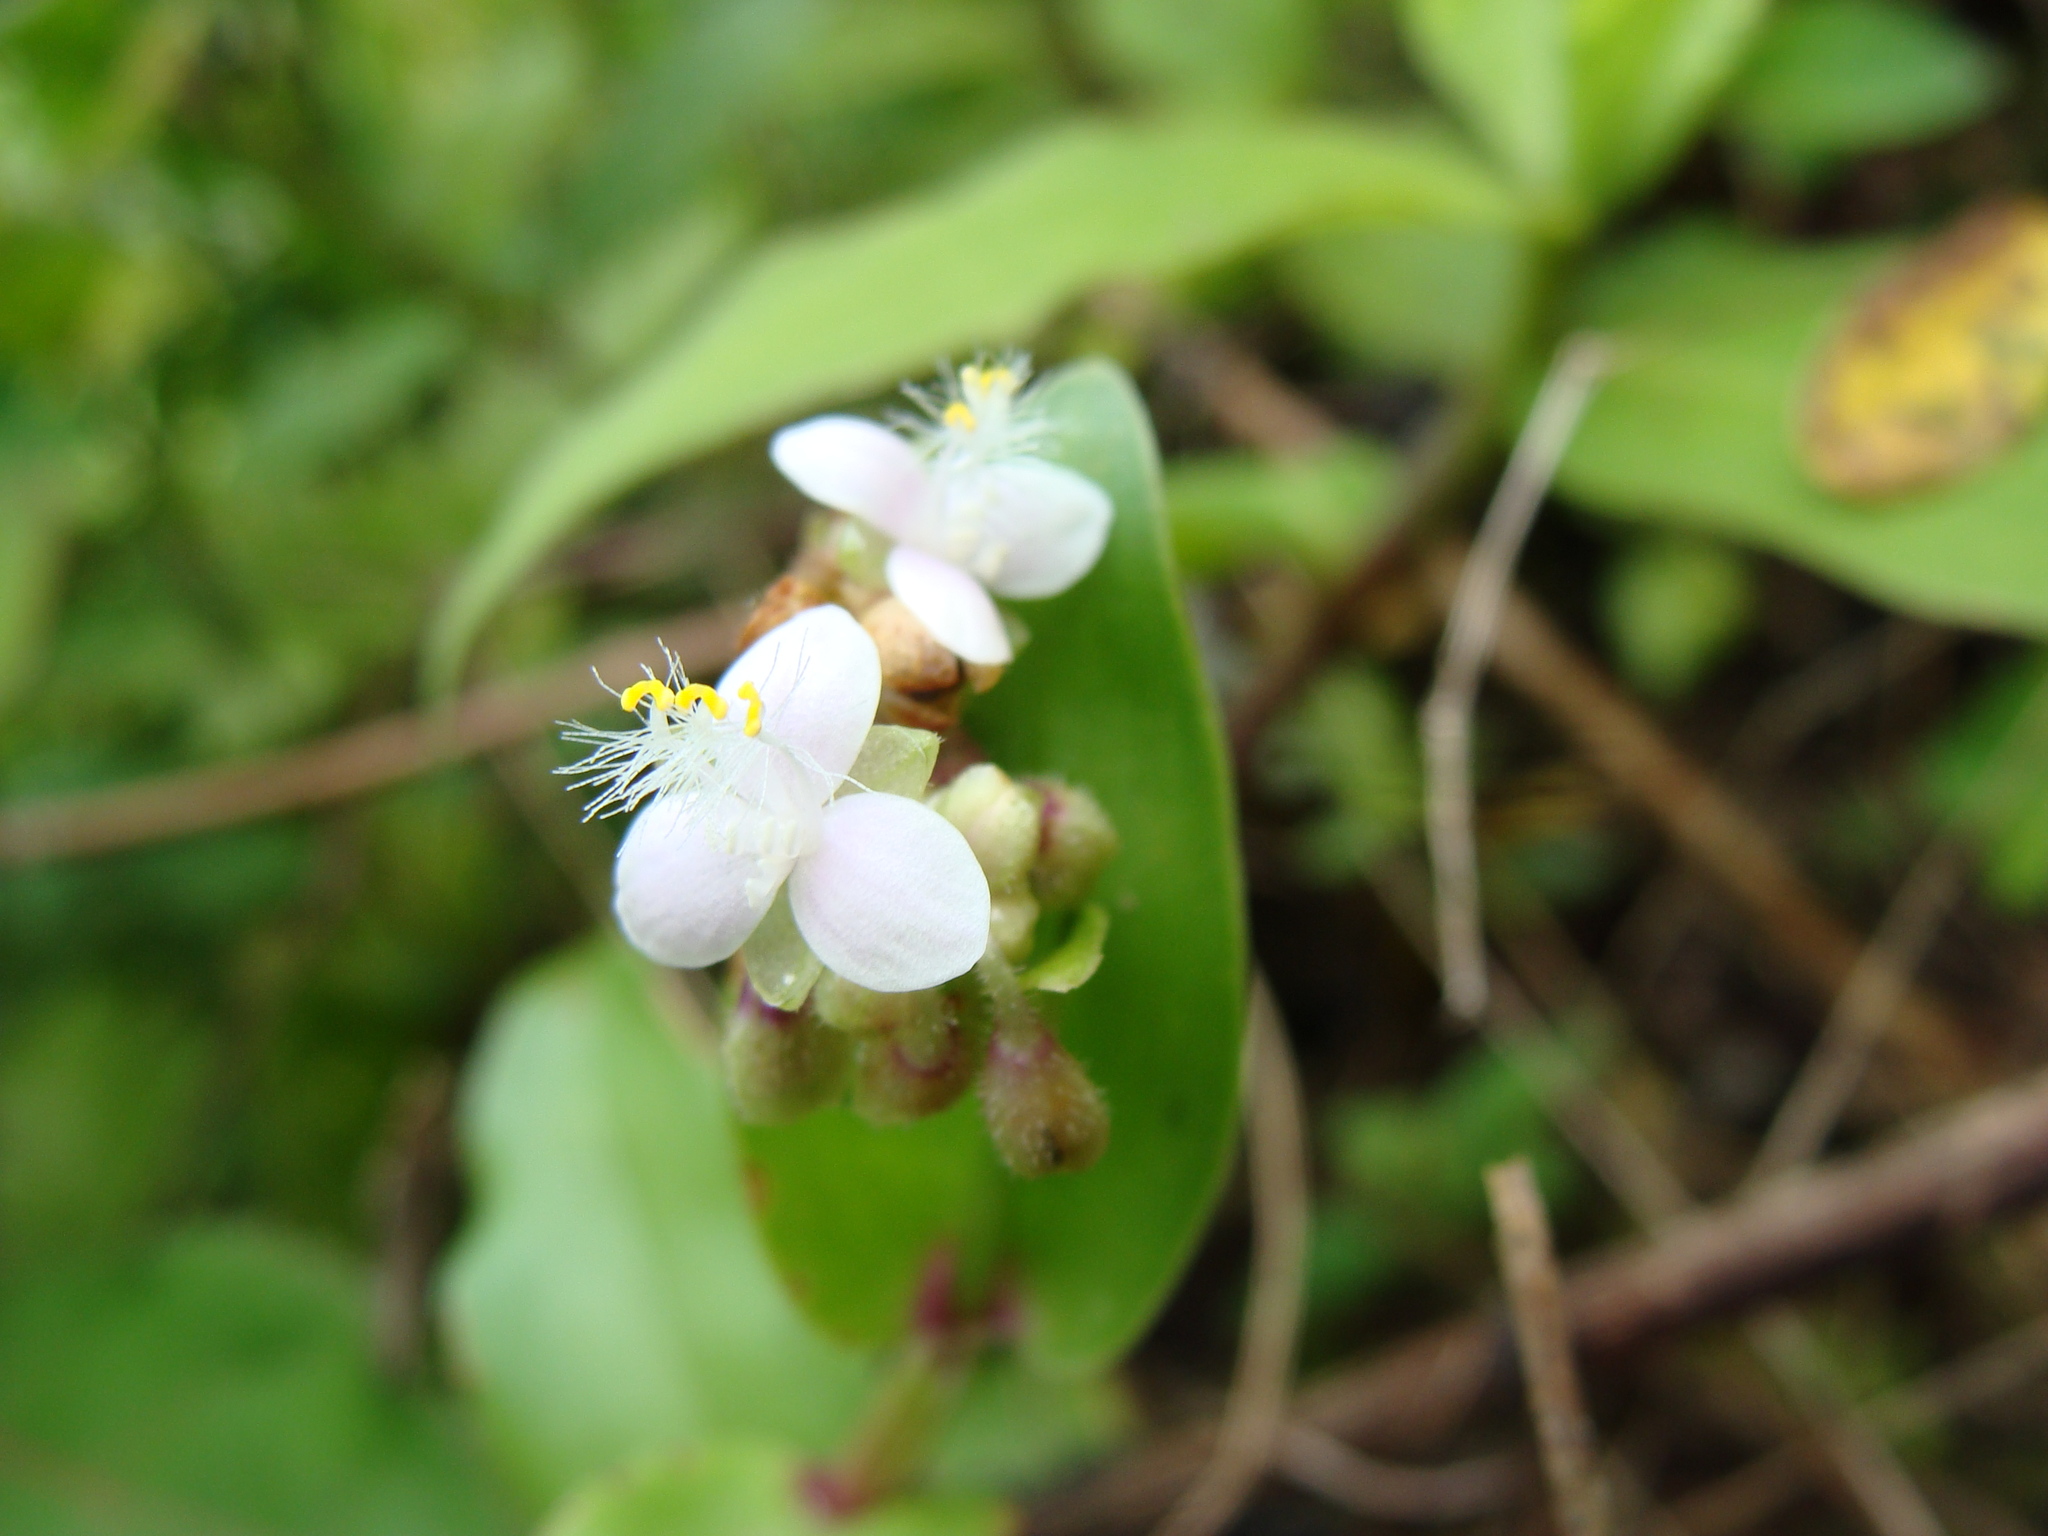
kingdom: Plantae
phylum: Tracheophyta
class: Liliopsida
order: Commelinales
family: Commelinaceae
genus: Callisia
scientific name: Callisia serrulata
